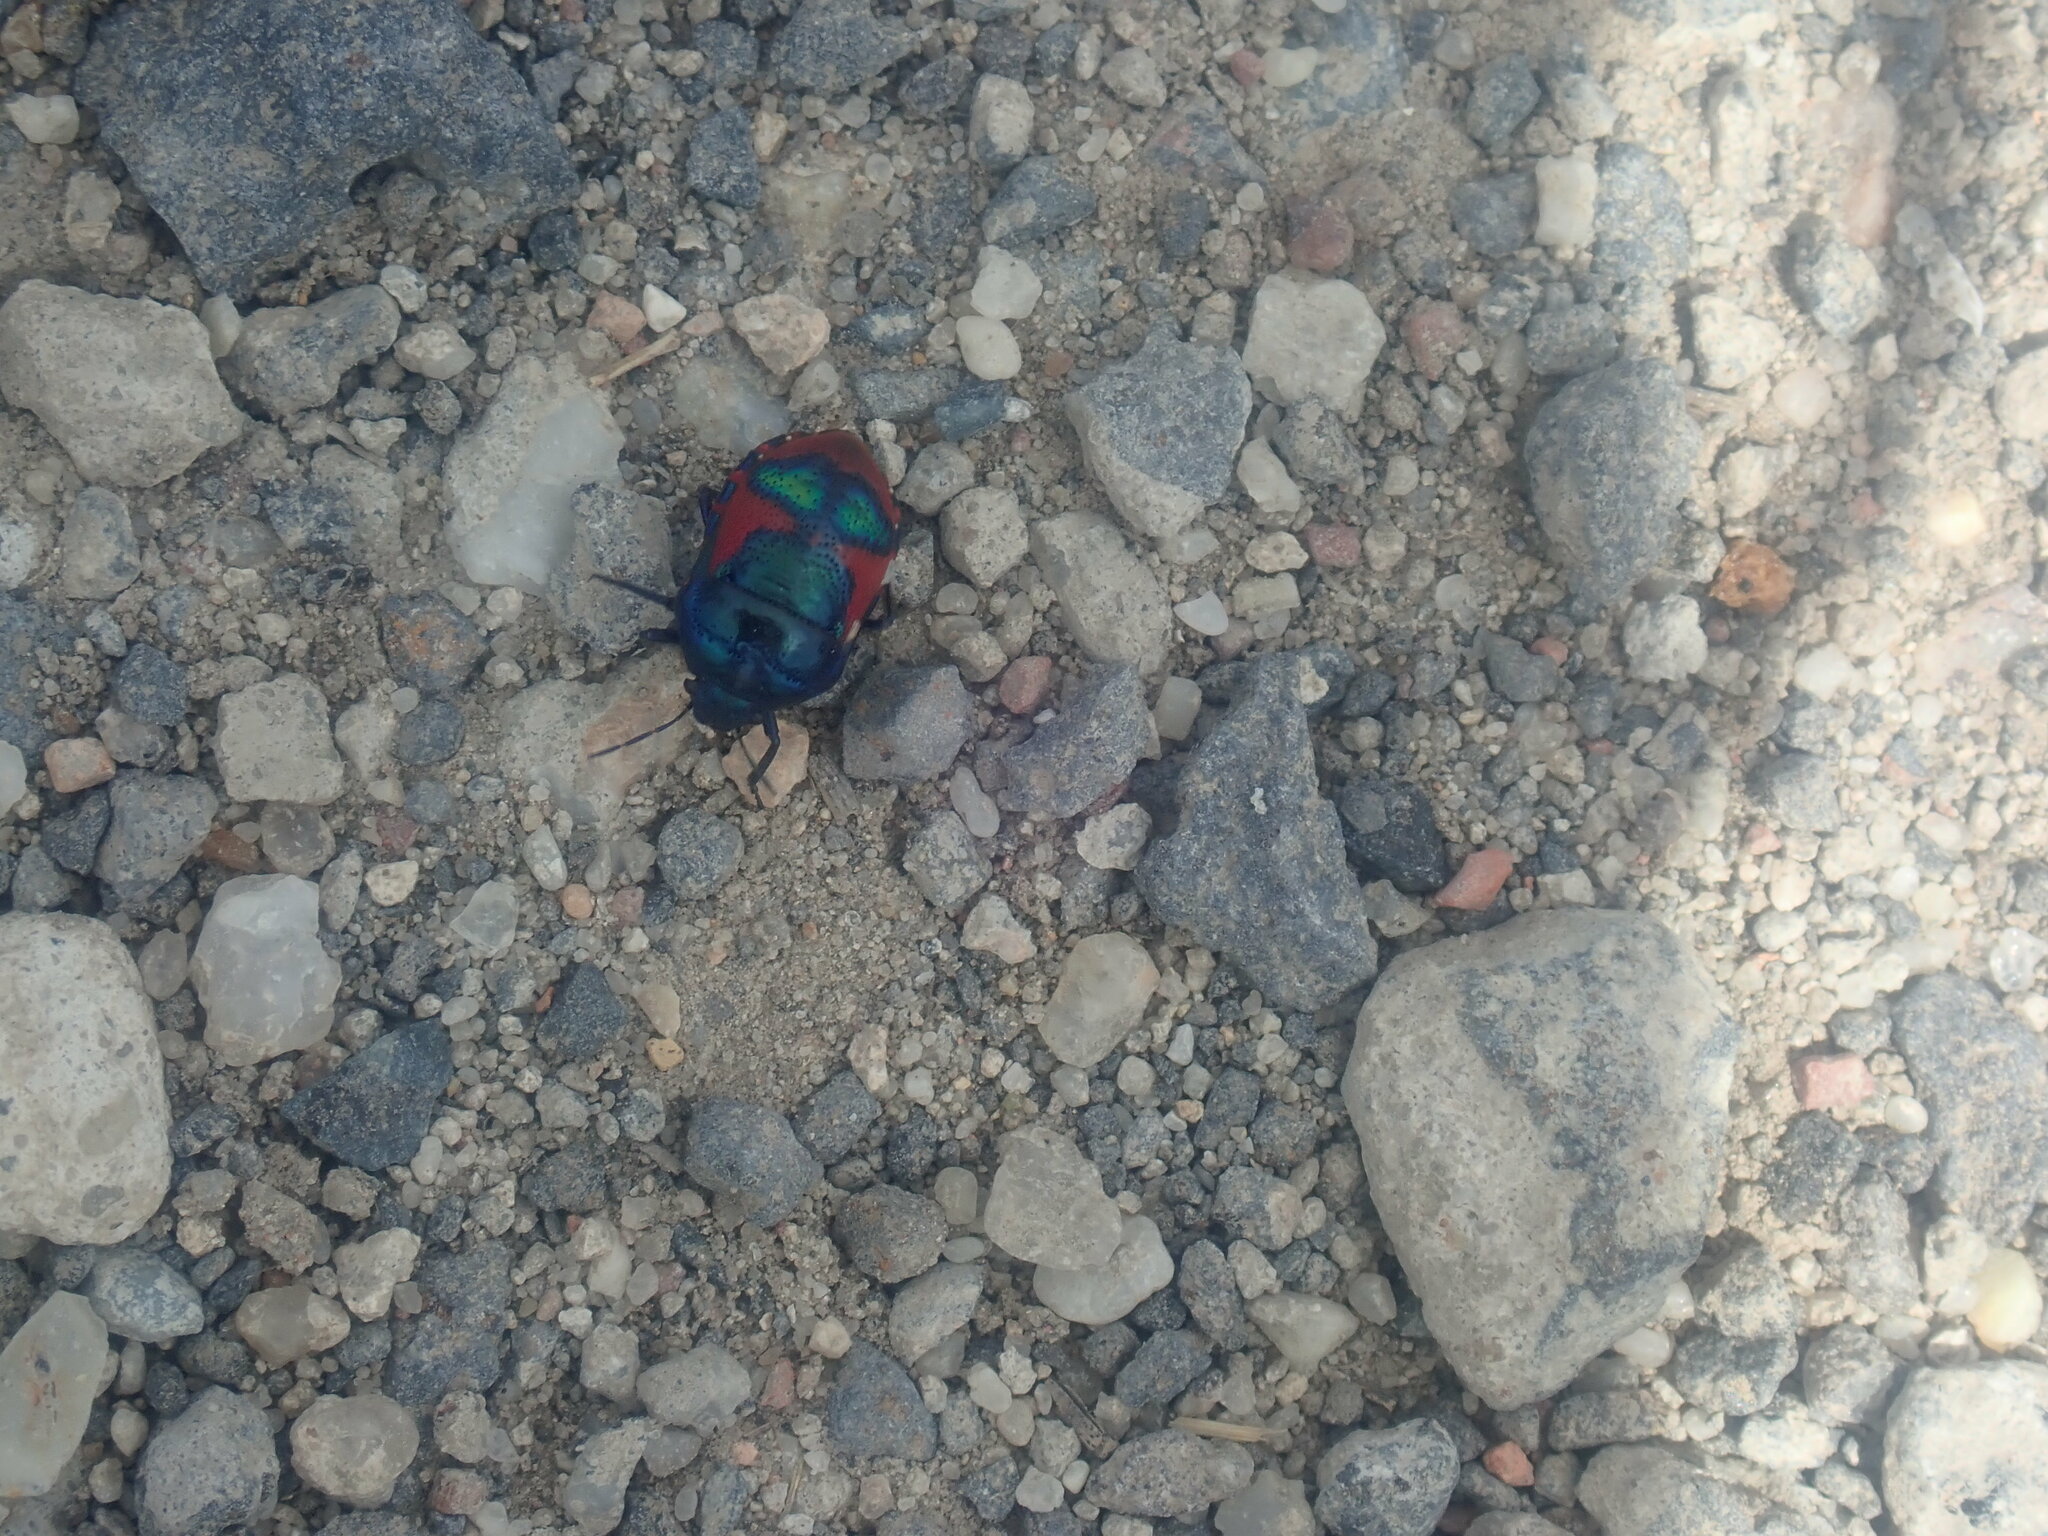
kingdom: Animalia
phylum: Arthropoda
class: Insecta
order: Hemiptera
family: Scutelleridae
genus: Choerocoris
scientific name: Choerocoris paganus
